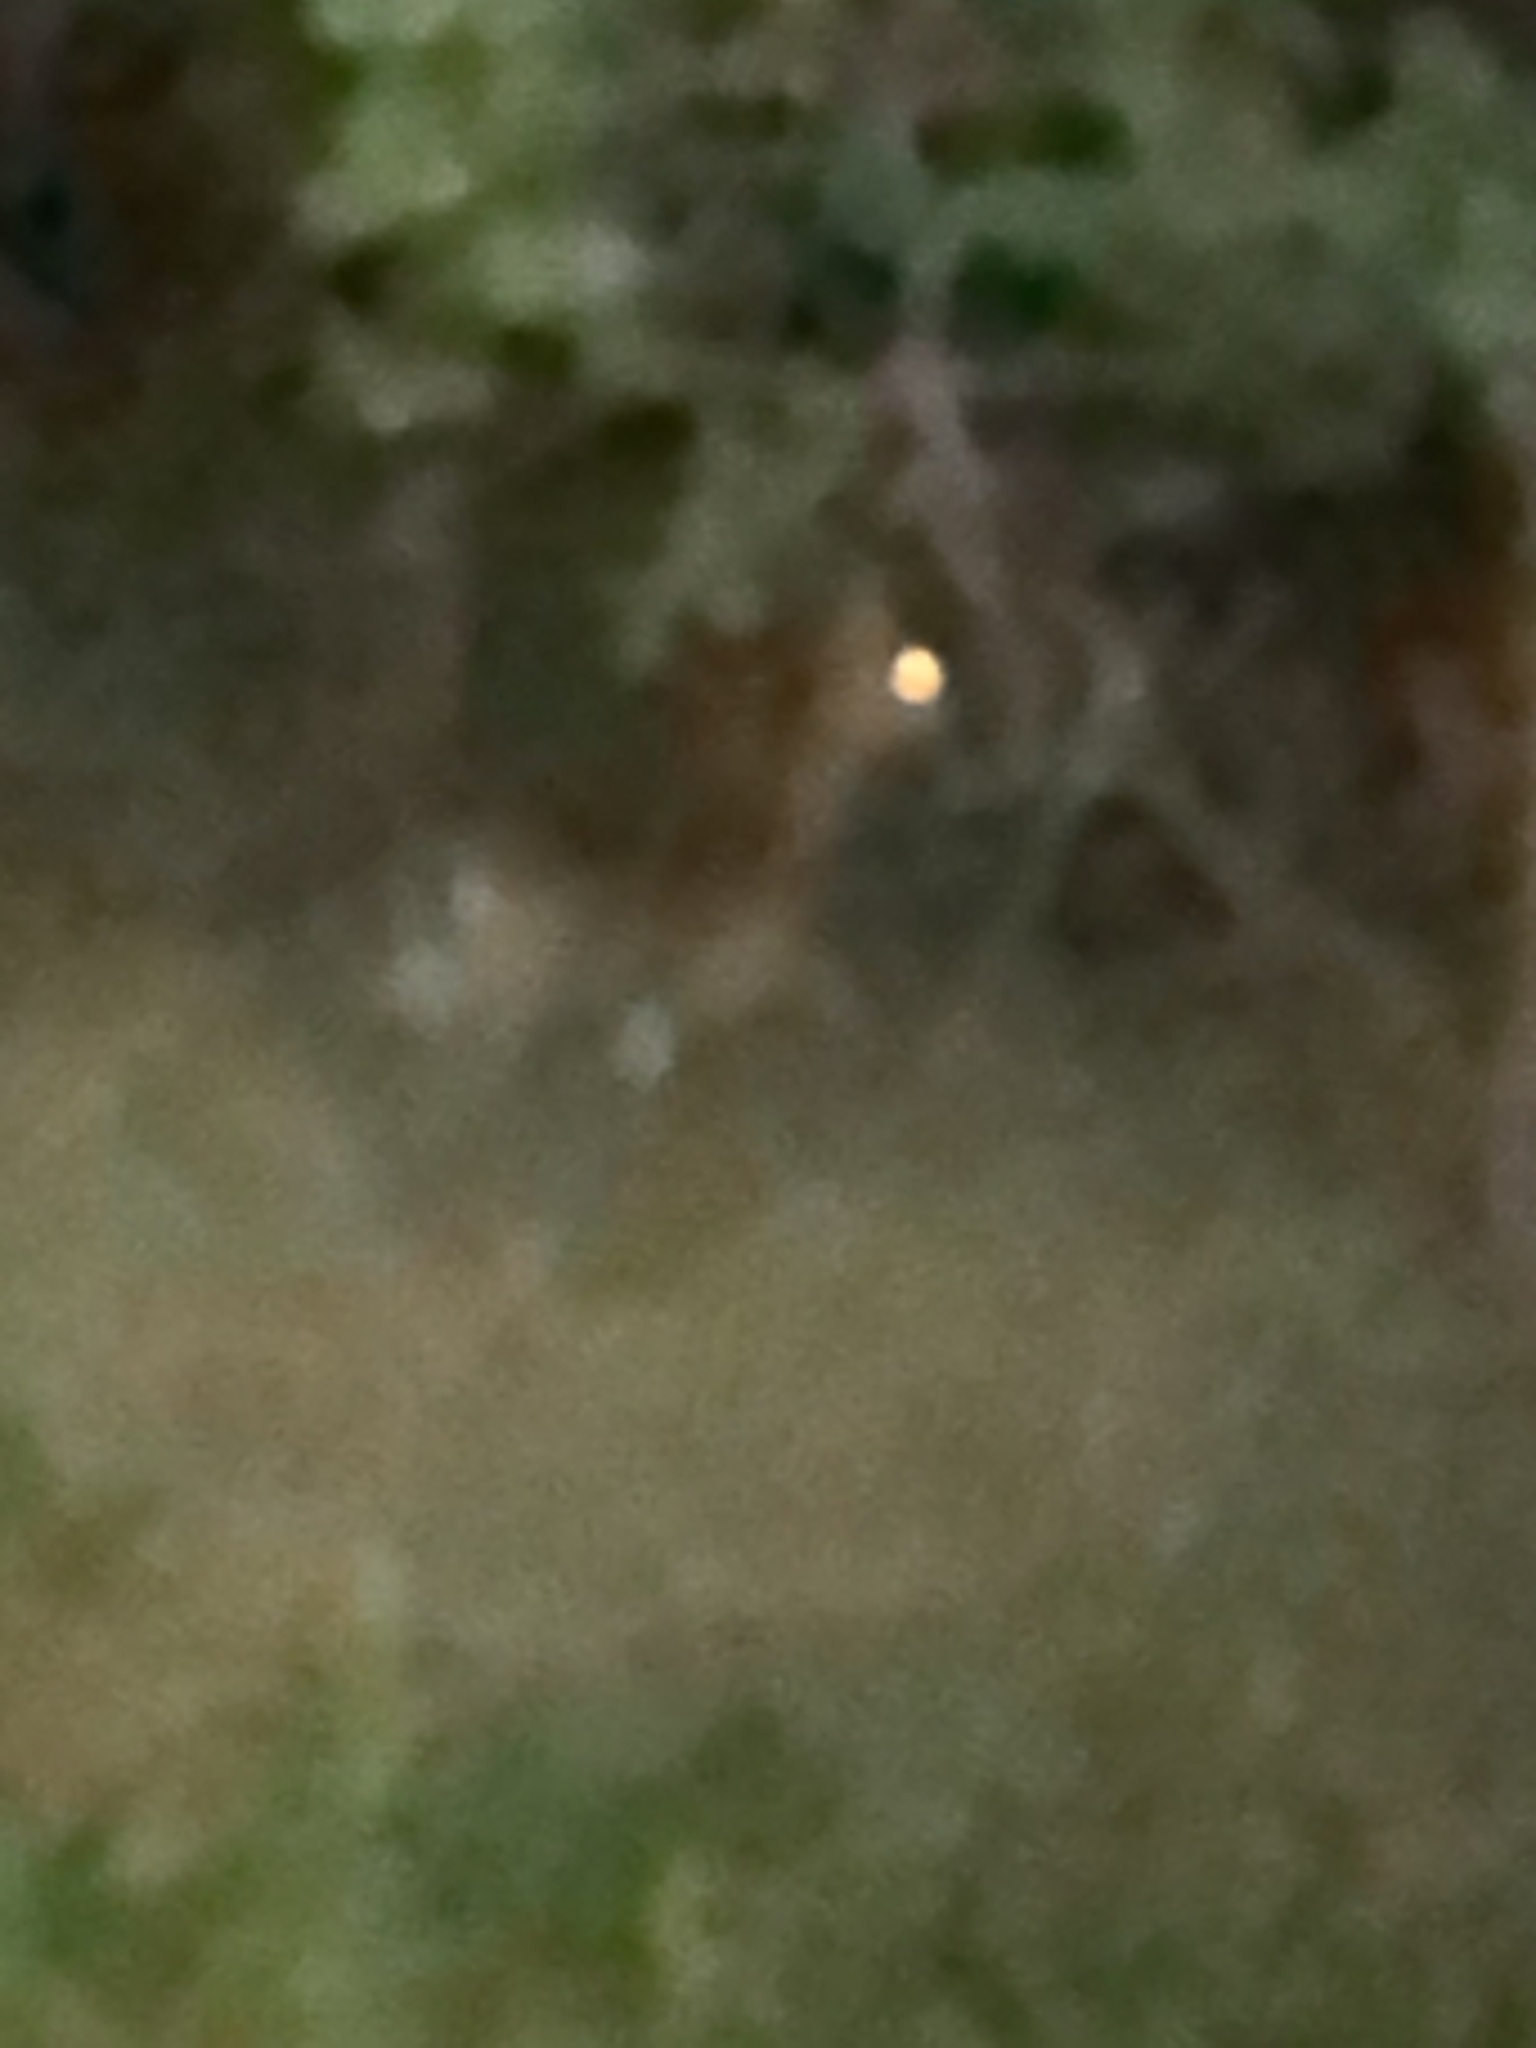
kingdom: Animalia
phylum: Chordata
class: Mammalia
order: Artiodactyla
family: Cervidae
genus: Odocoileus
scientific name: Odocoileus virginianus
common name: White-tailed deer
